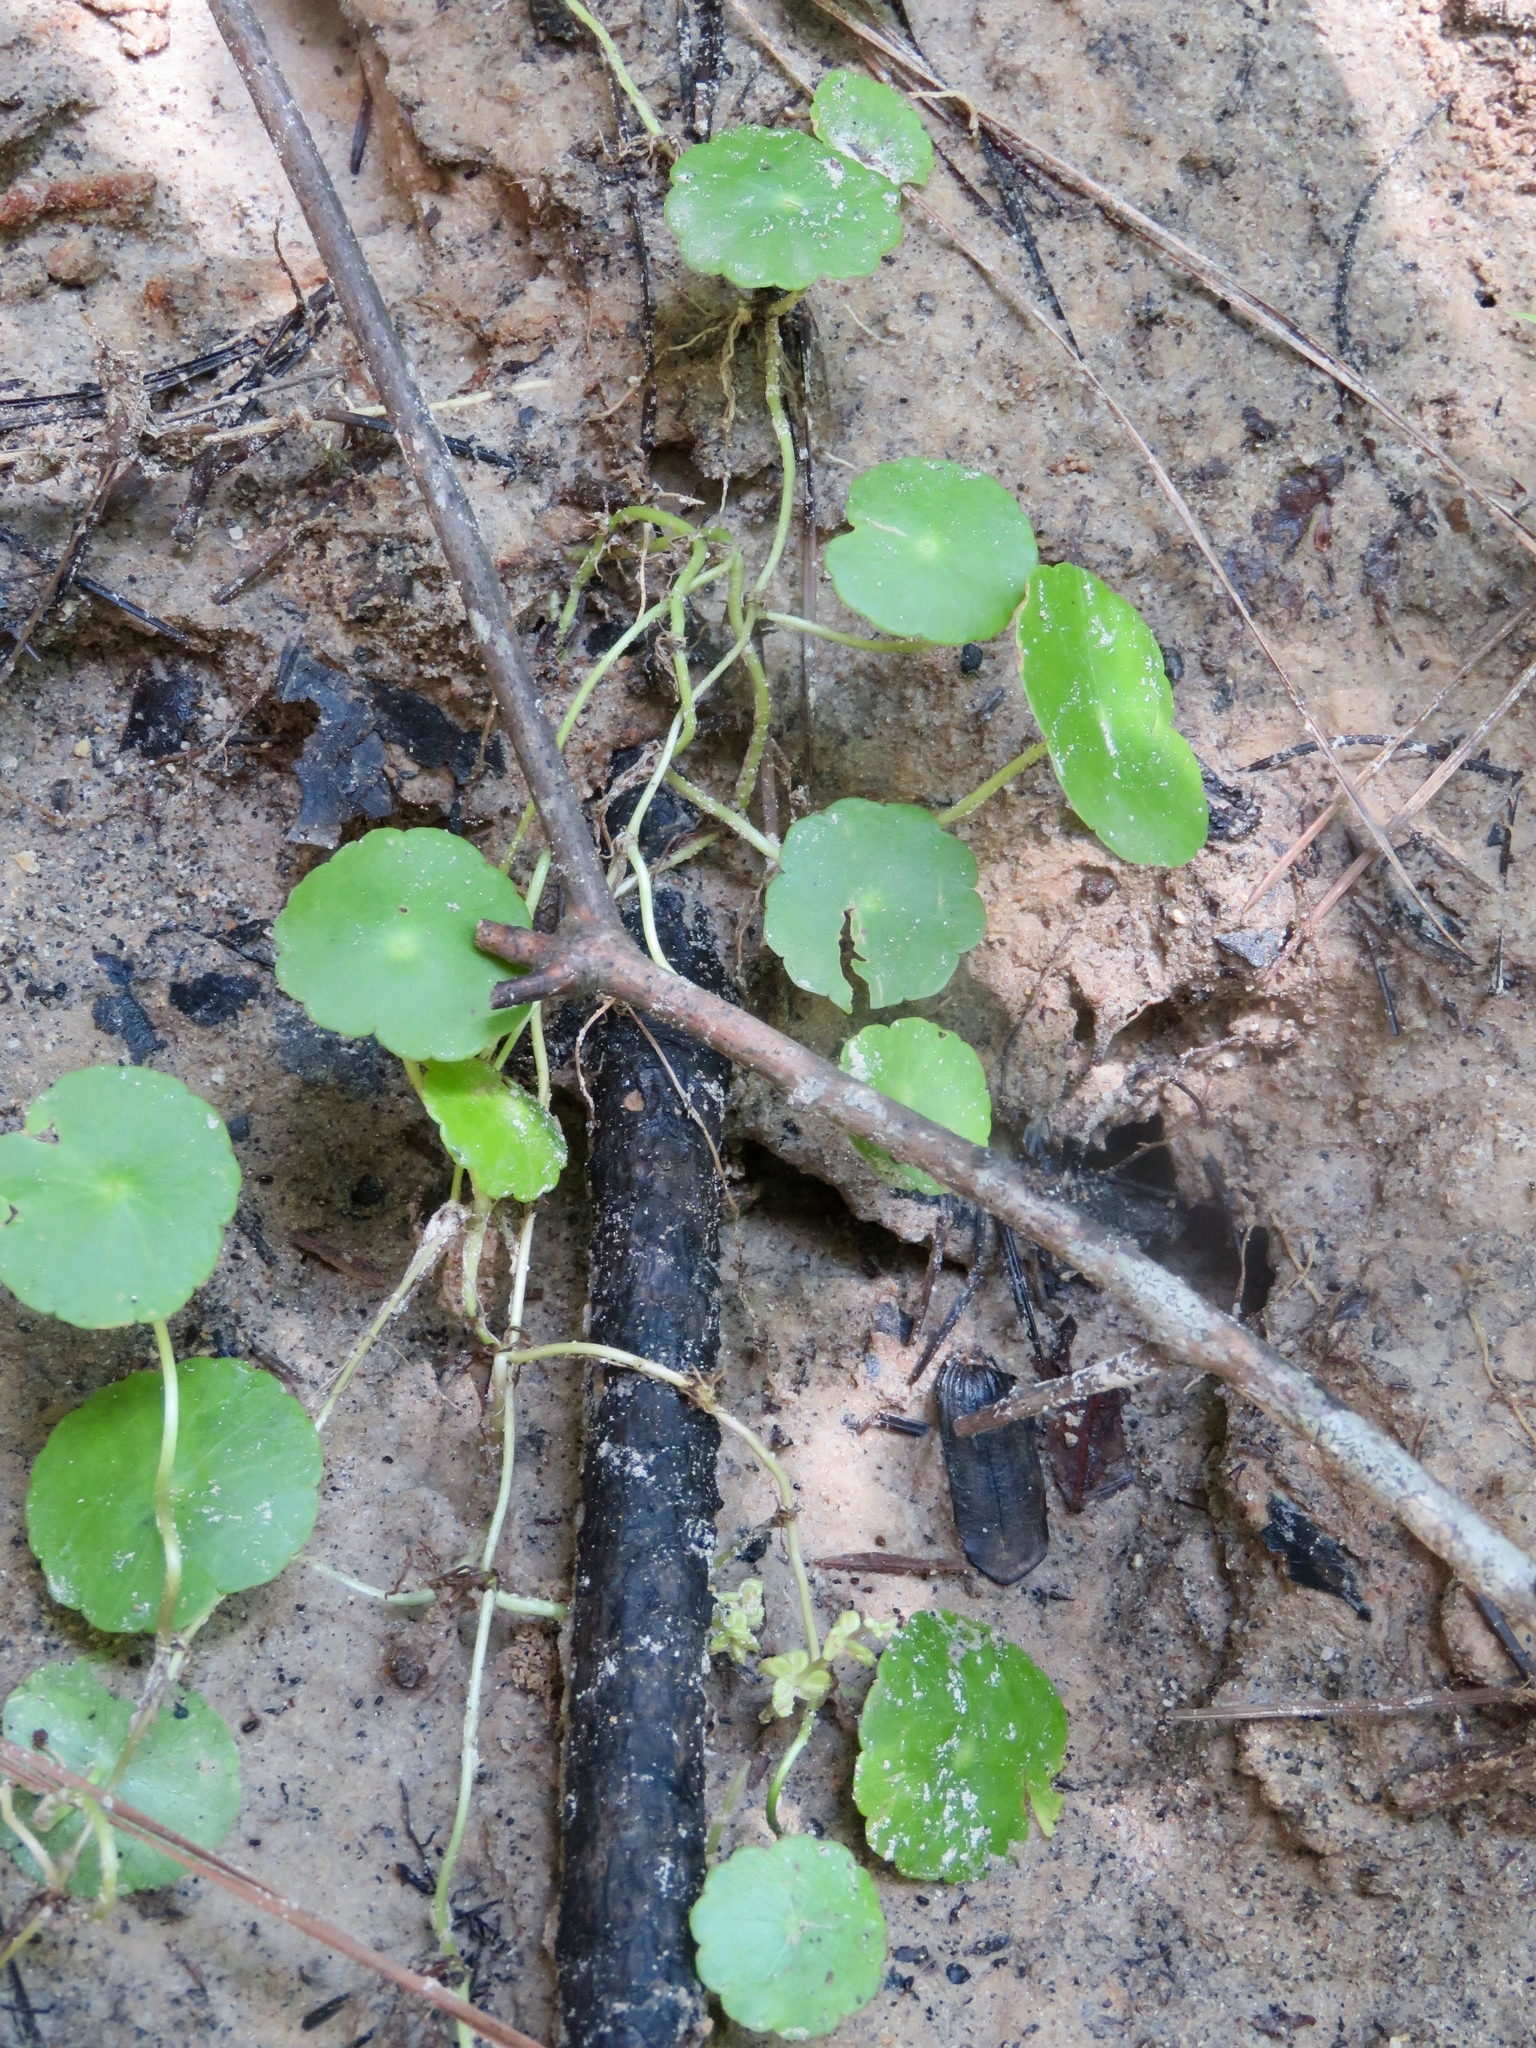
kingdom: Plantae
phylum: Tracheophyta
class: Magnoliopsida
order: Apiales
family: Araliaceae
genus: Hydrocotyle
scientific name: Hydrocotyle verticillata
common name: Whorled marshpennywort
